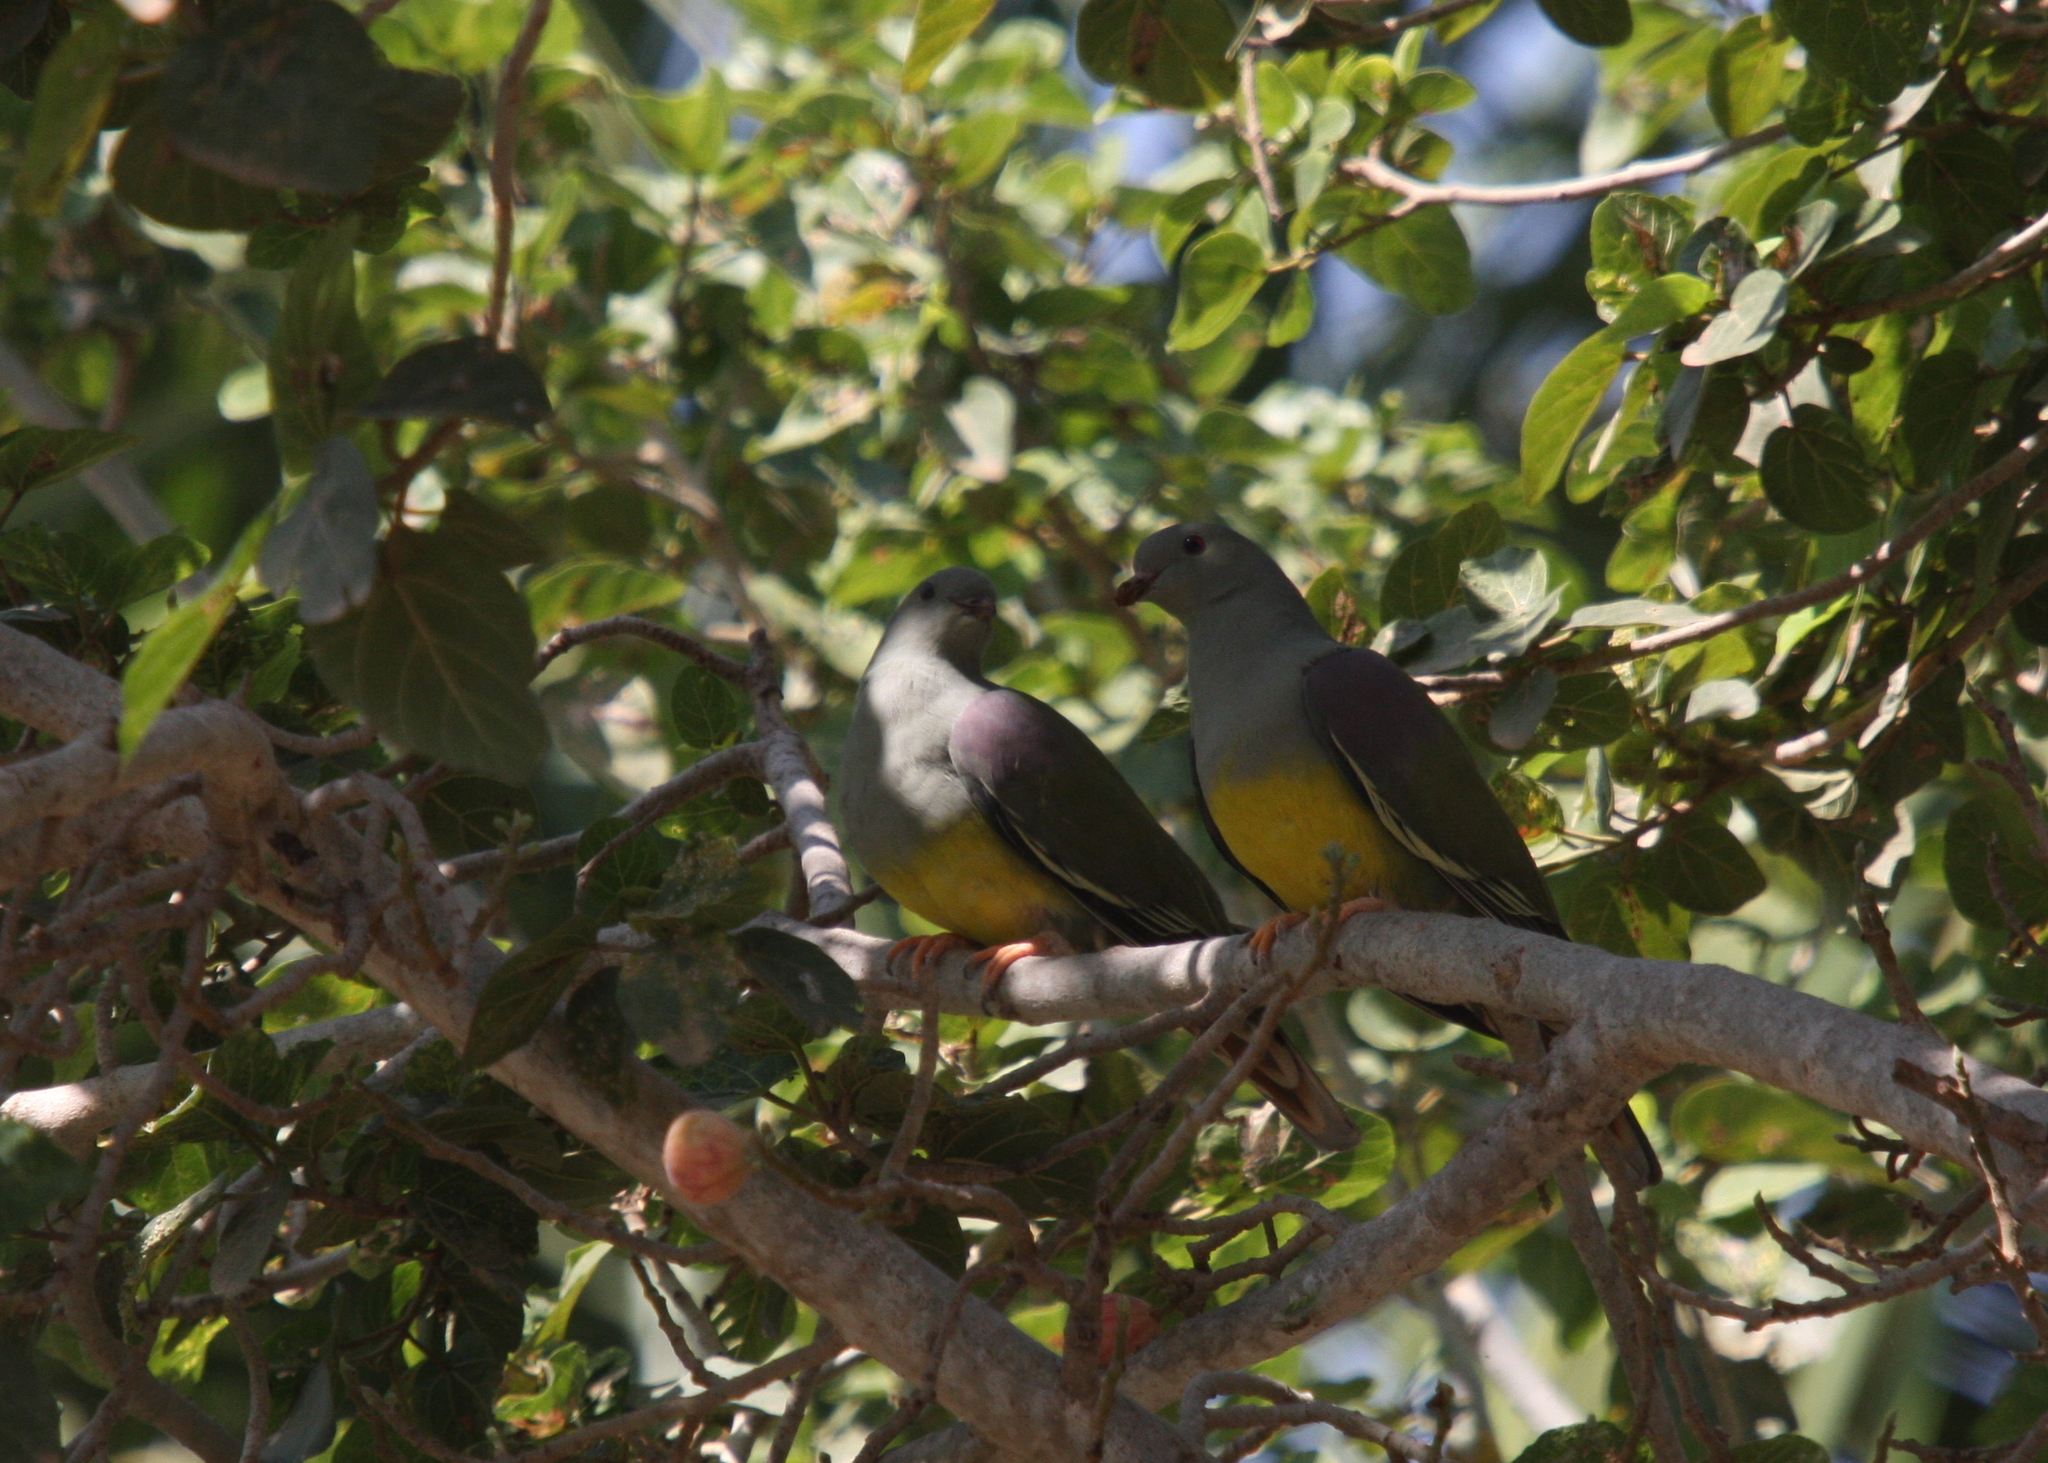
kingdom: Animalia
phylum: Chordata
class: Aves
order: Columbiformes
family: Columbidae
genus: Treron
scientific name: Treron waalia
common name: Bruce's green pigeon
